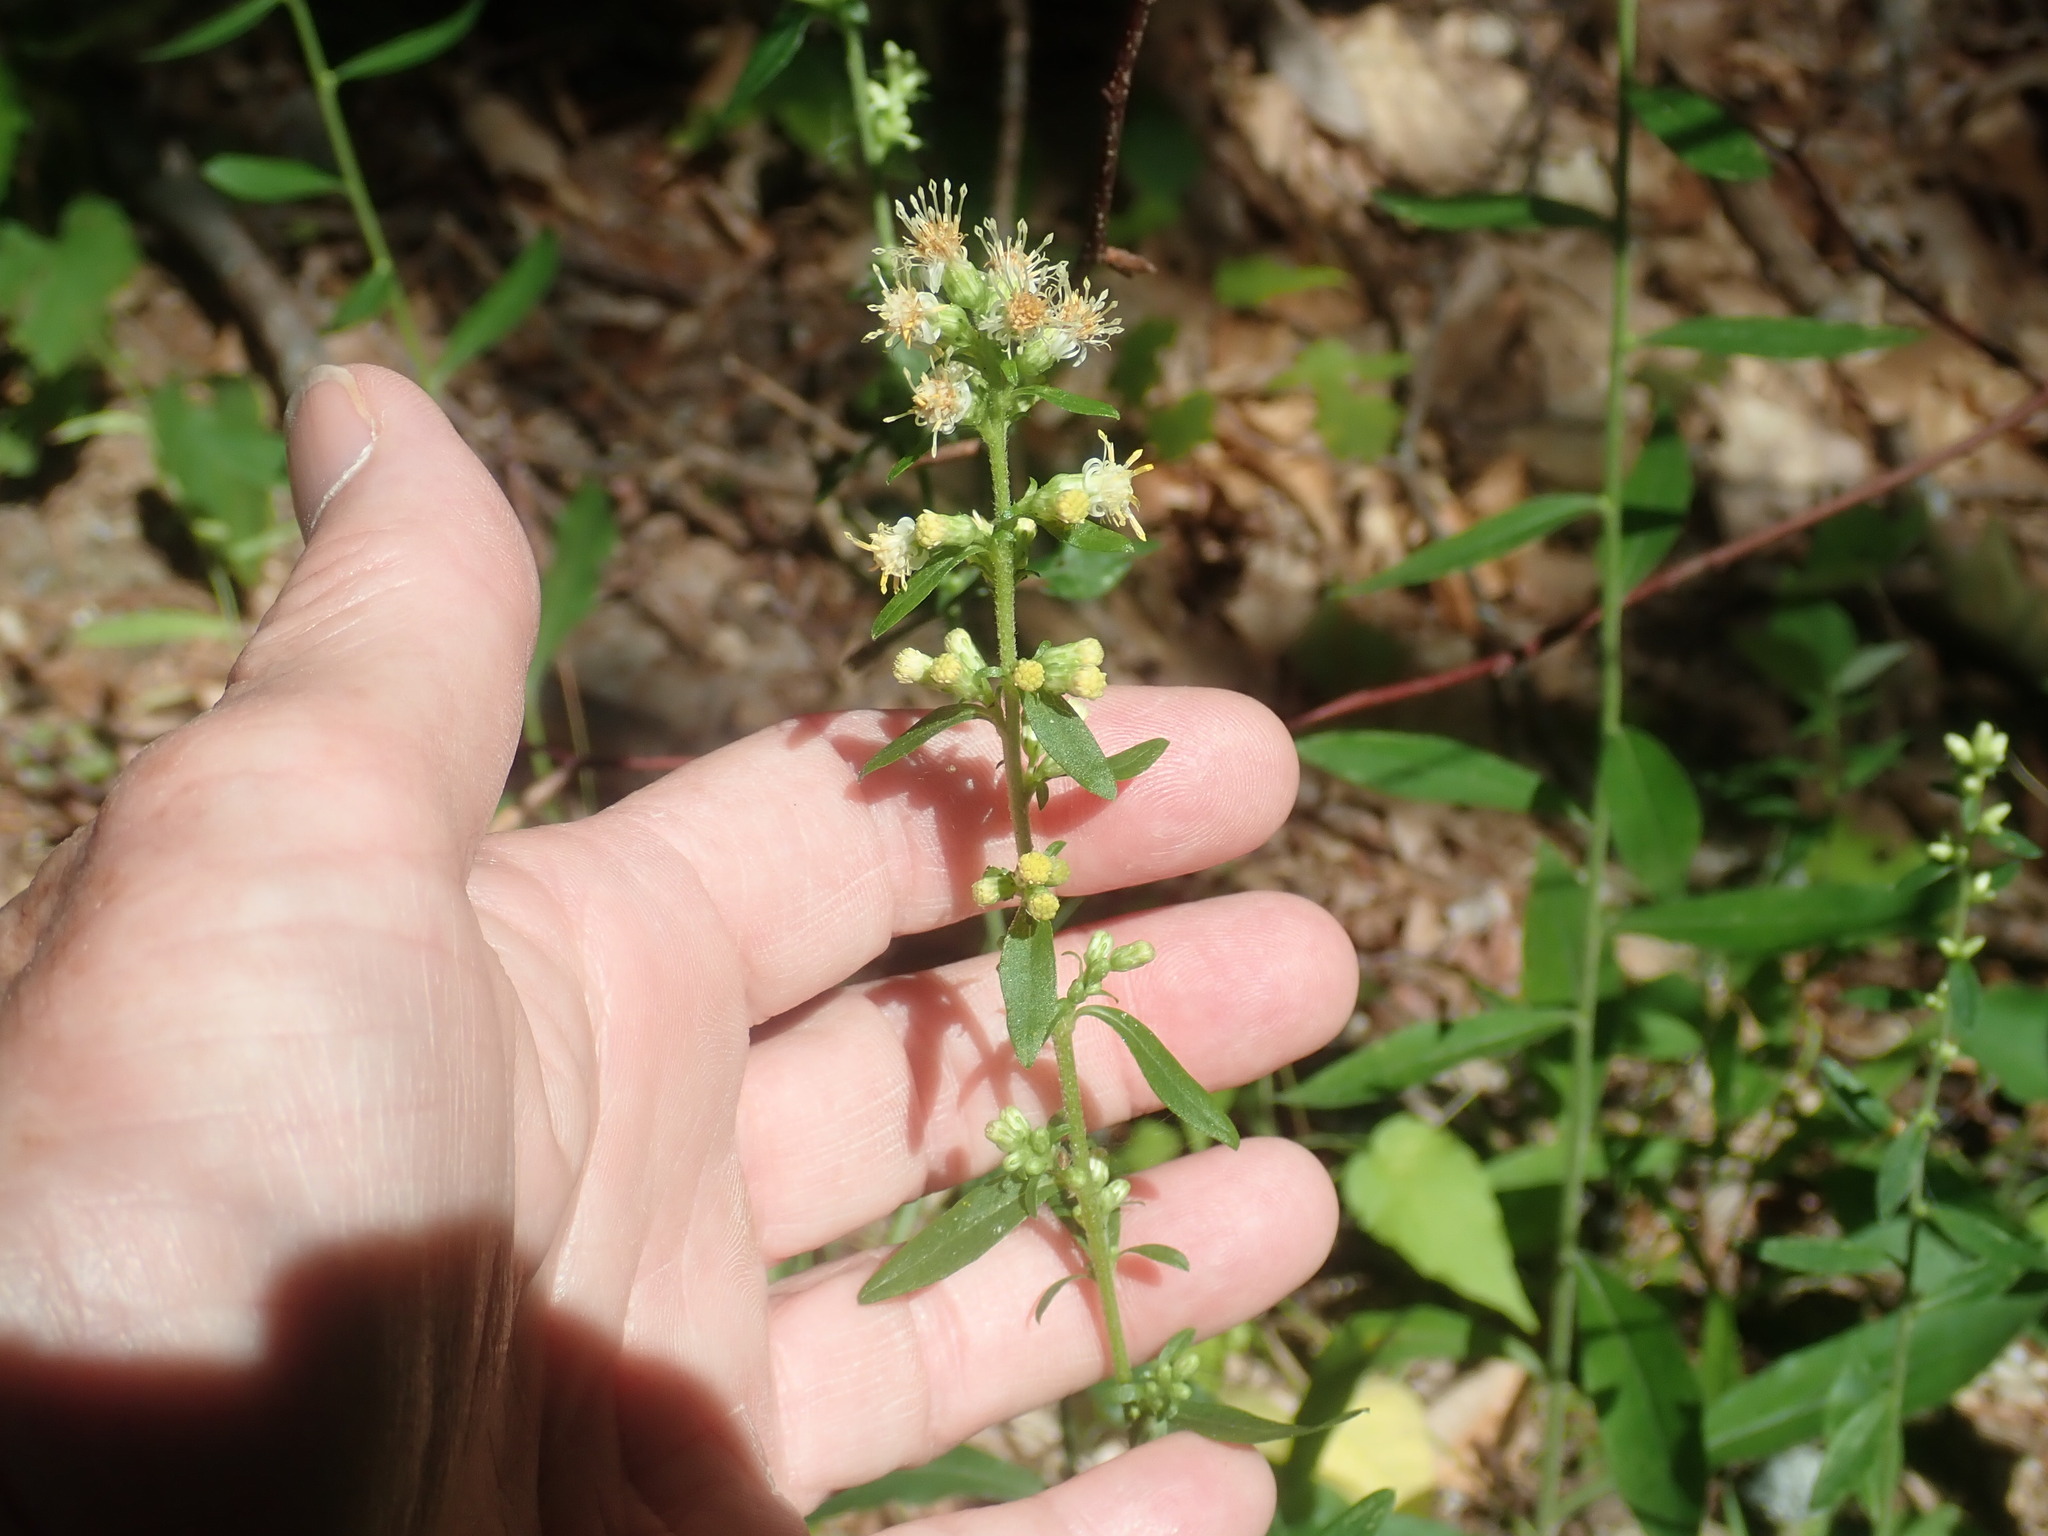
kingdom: Plantae
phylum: Tracheophyta
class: Magnoliopsida
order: Asterales
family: Asteraceae
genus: Solidago
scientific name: Solidago bicolor
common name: Silverrod
